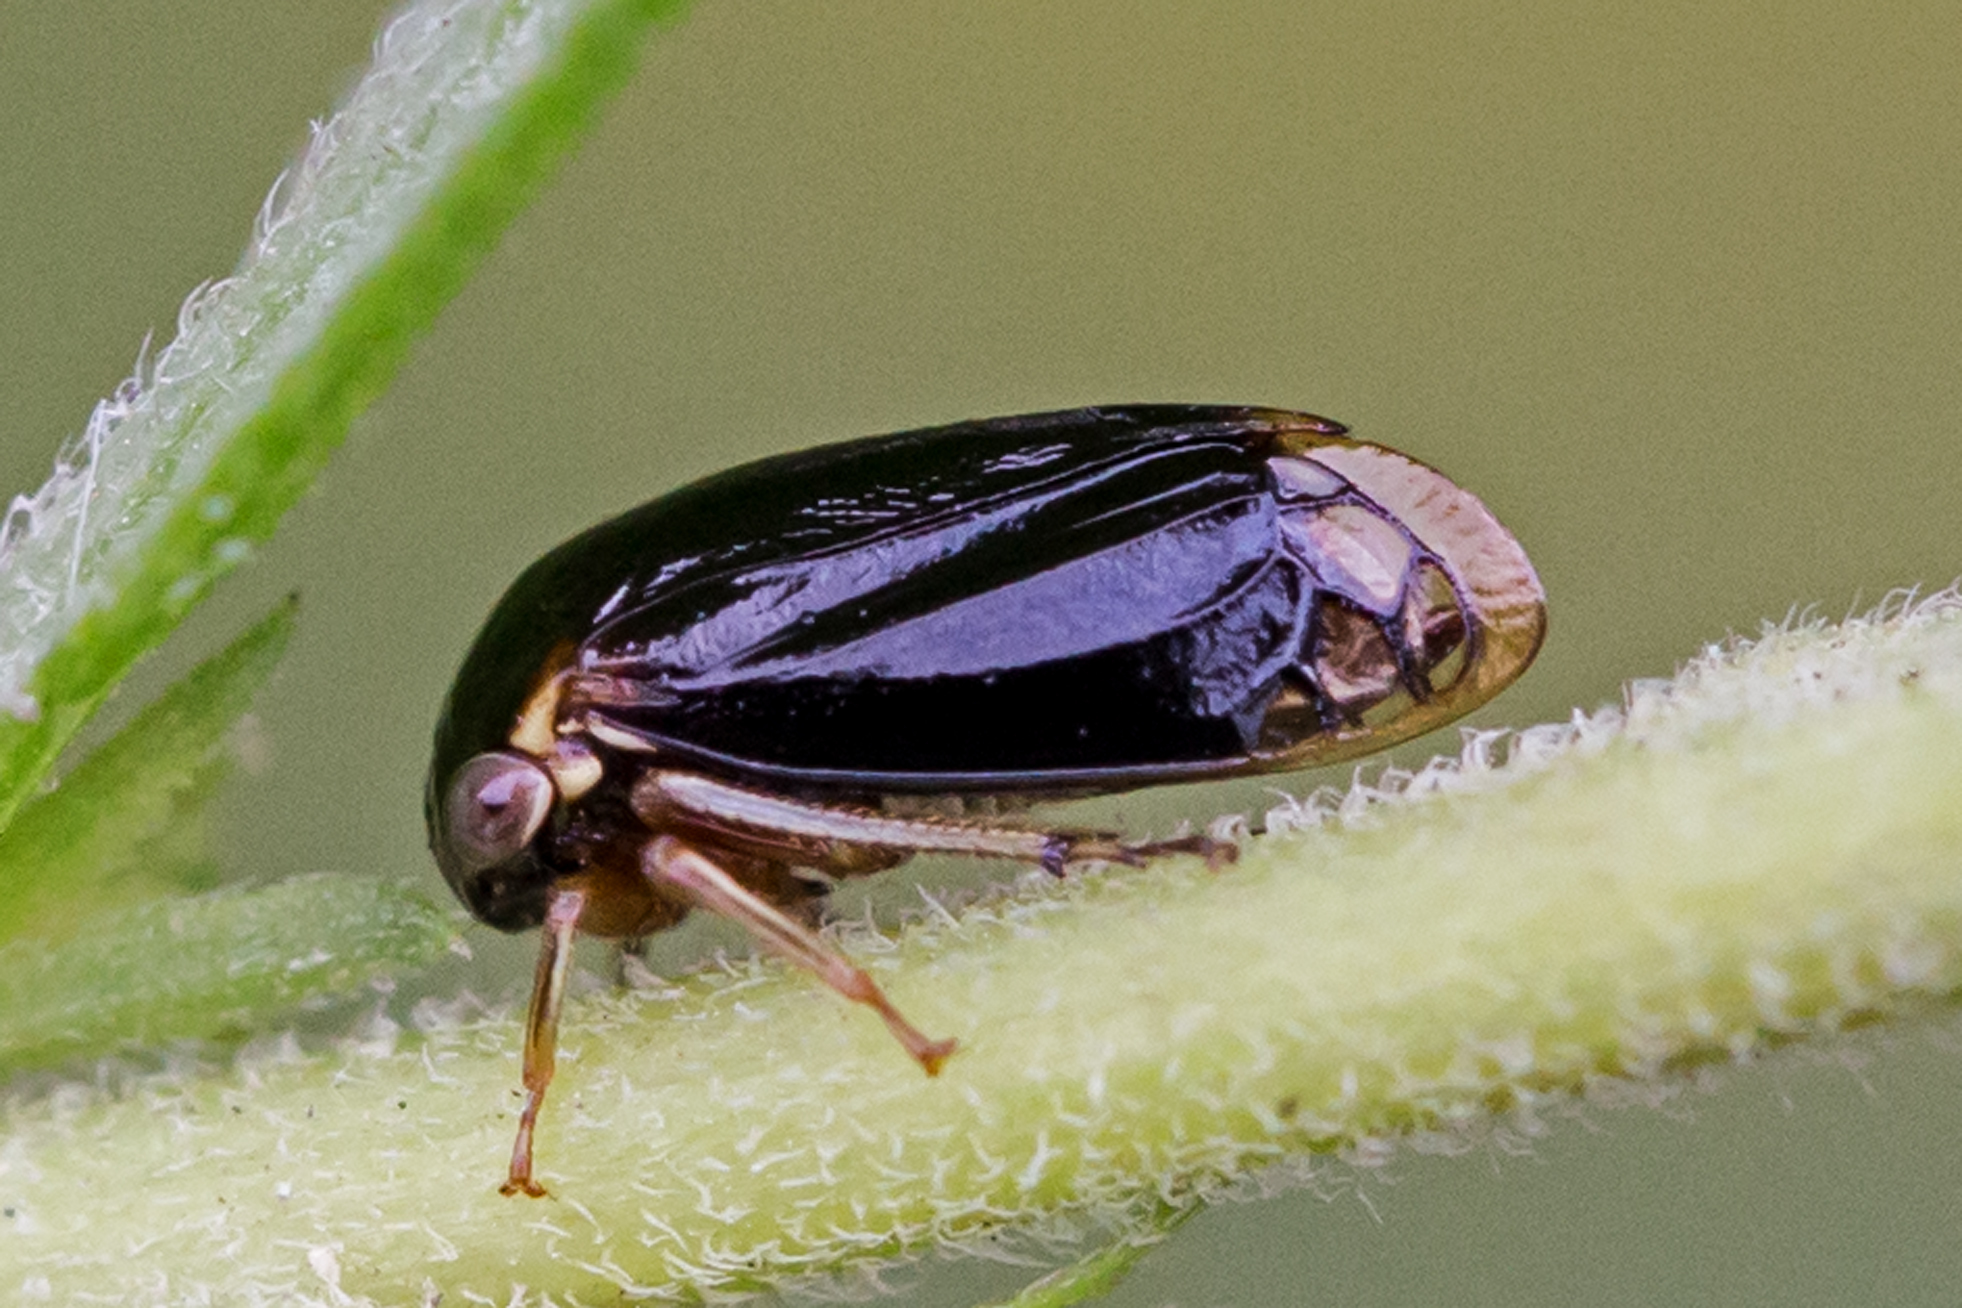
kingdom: Animalia
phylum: Arthropoda
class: Insecta
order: Hemiptera
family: Membracidae
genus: Acutalis
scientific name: Acutalis tartarea
